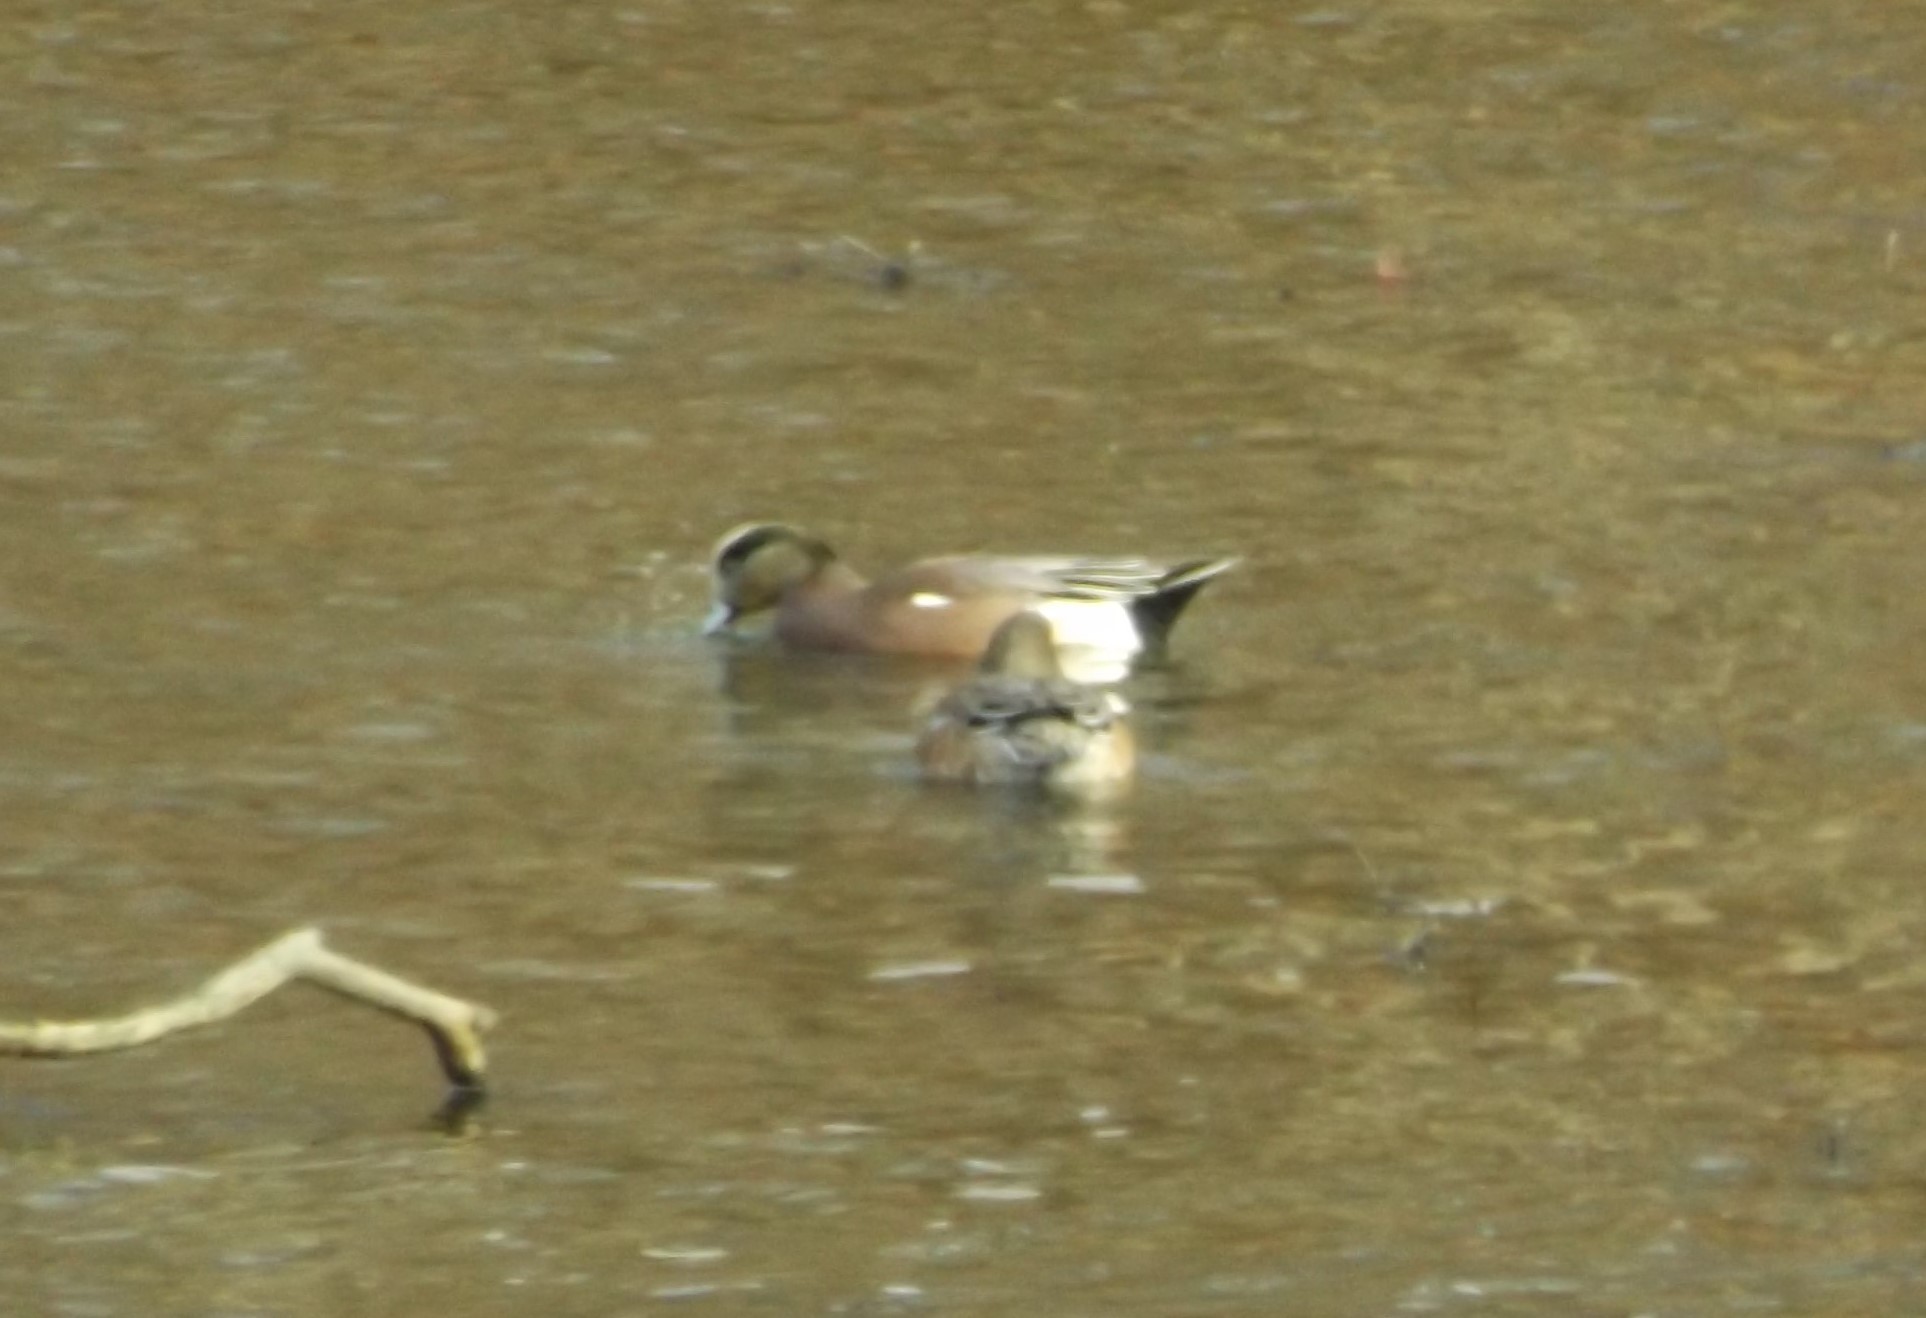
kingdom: Animalia
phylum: Chordata
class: Aves
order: Anseriformes
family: Anatidae
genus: Mareca
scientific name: Mareca americana
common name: American wigeon
